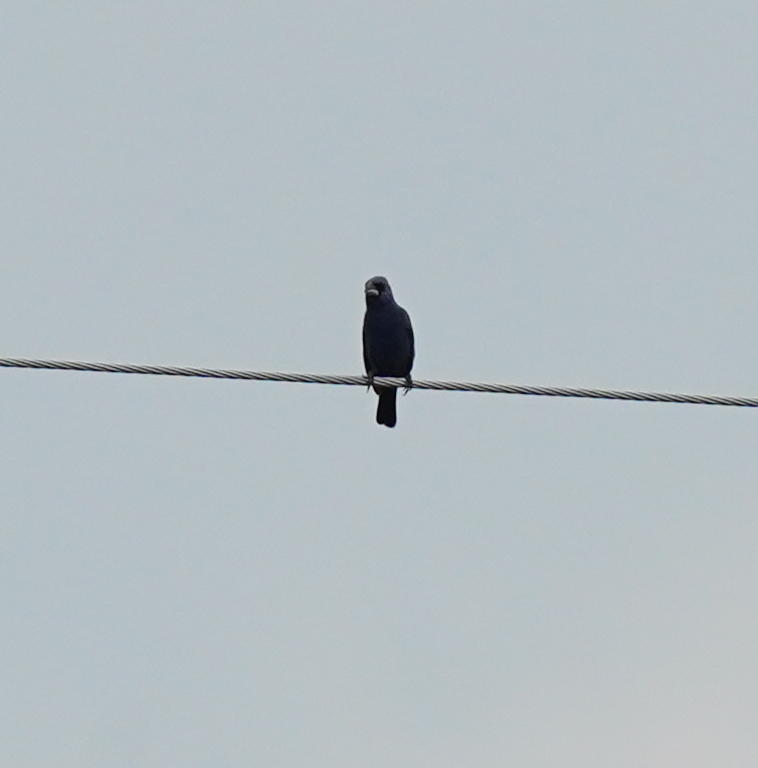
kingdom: Animalia
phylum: Chordata
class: Aves
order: Passeriformes
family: Cardinalidae
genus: Passerina
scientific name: Passerina caerulea
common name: Blue grosbeak
